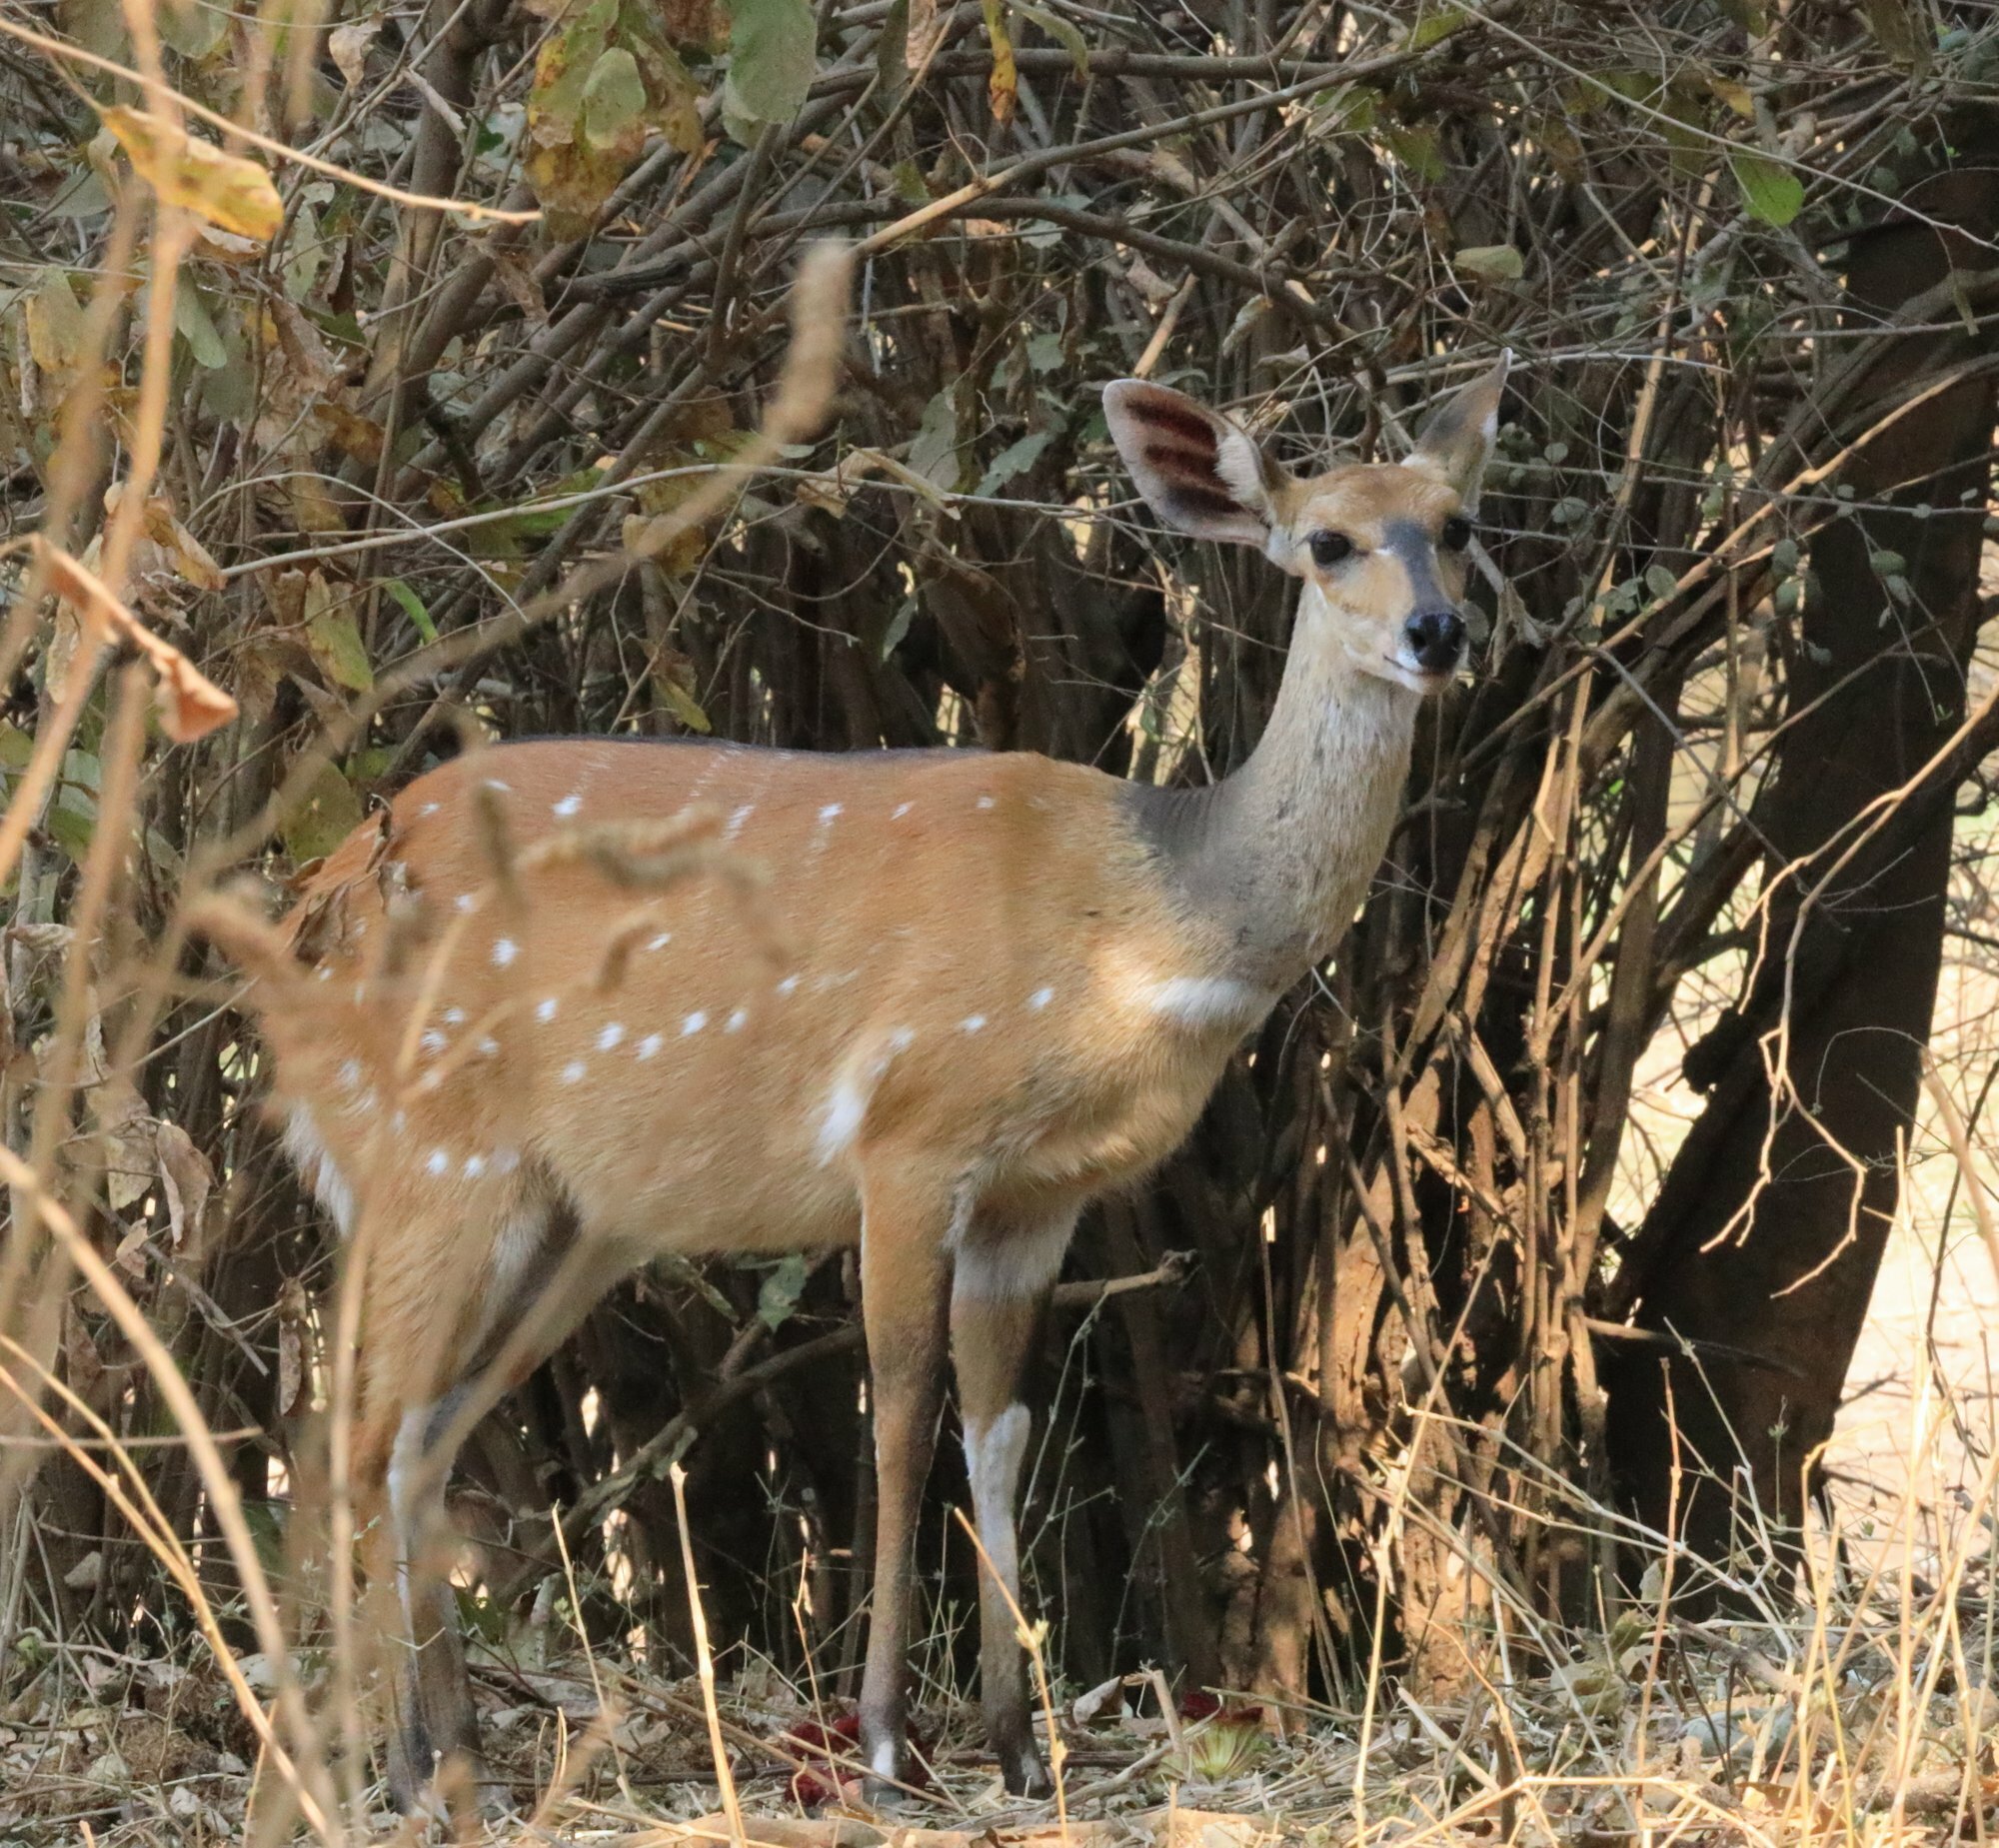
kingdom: Animalia
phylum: Chordata
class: Mammalia
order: Artiodactyla
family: Bovidae
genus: Tragelaphus
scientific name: Tragelaphus scriptus
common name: Bushbuck
